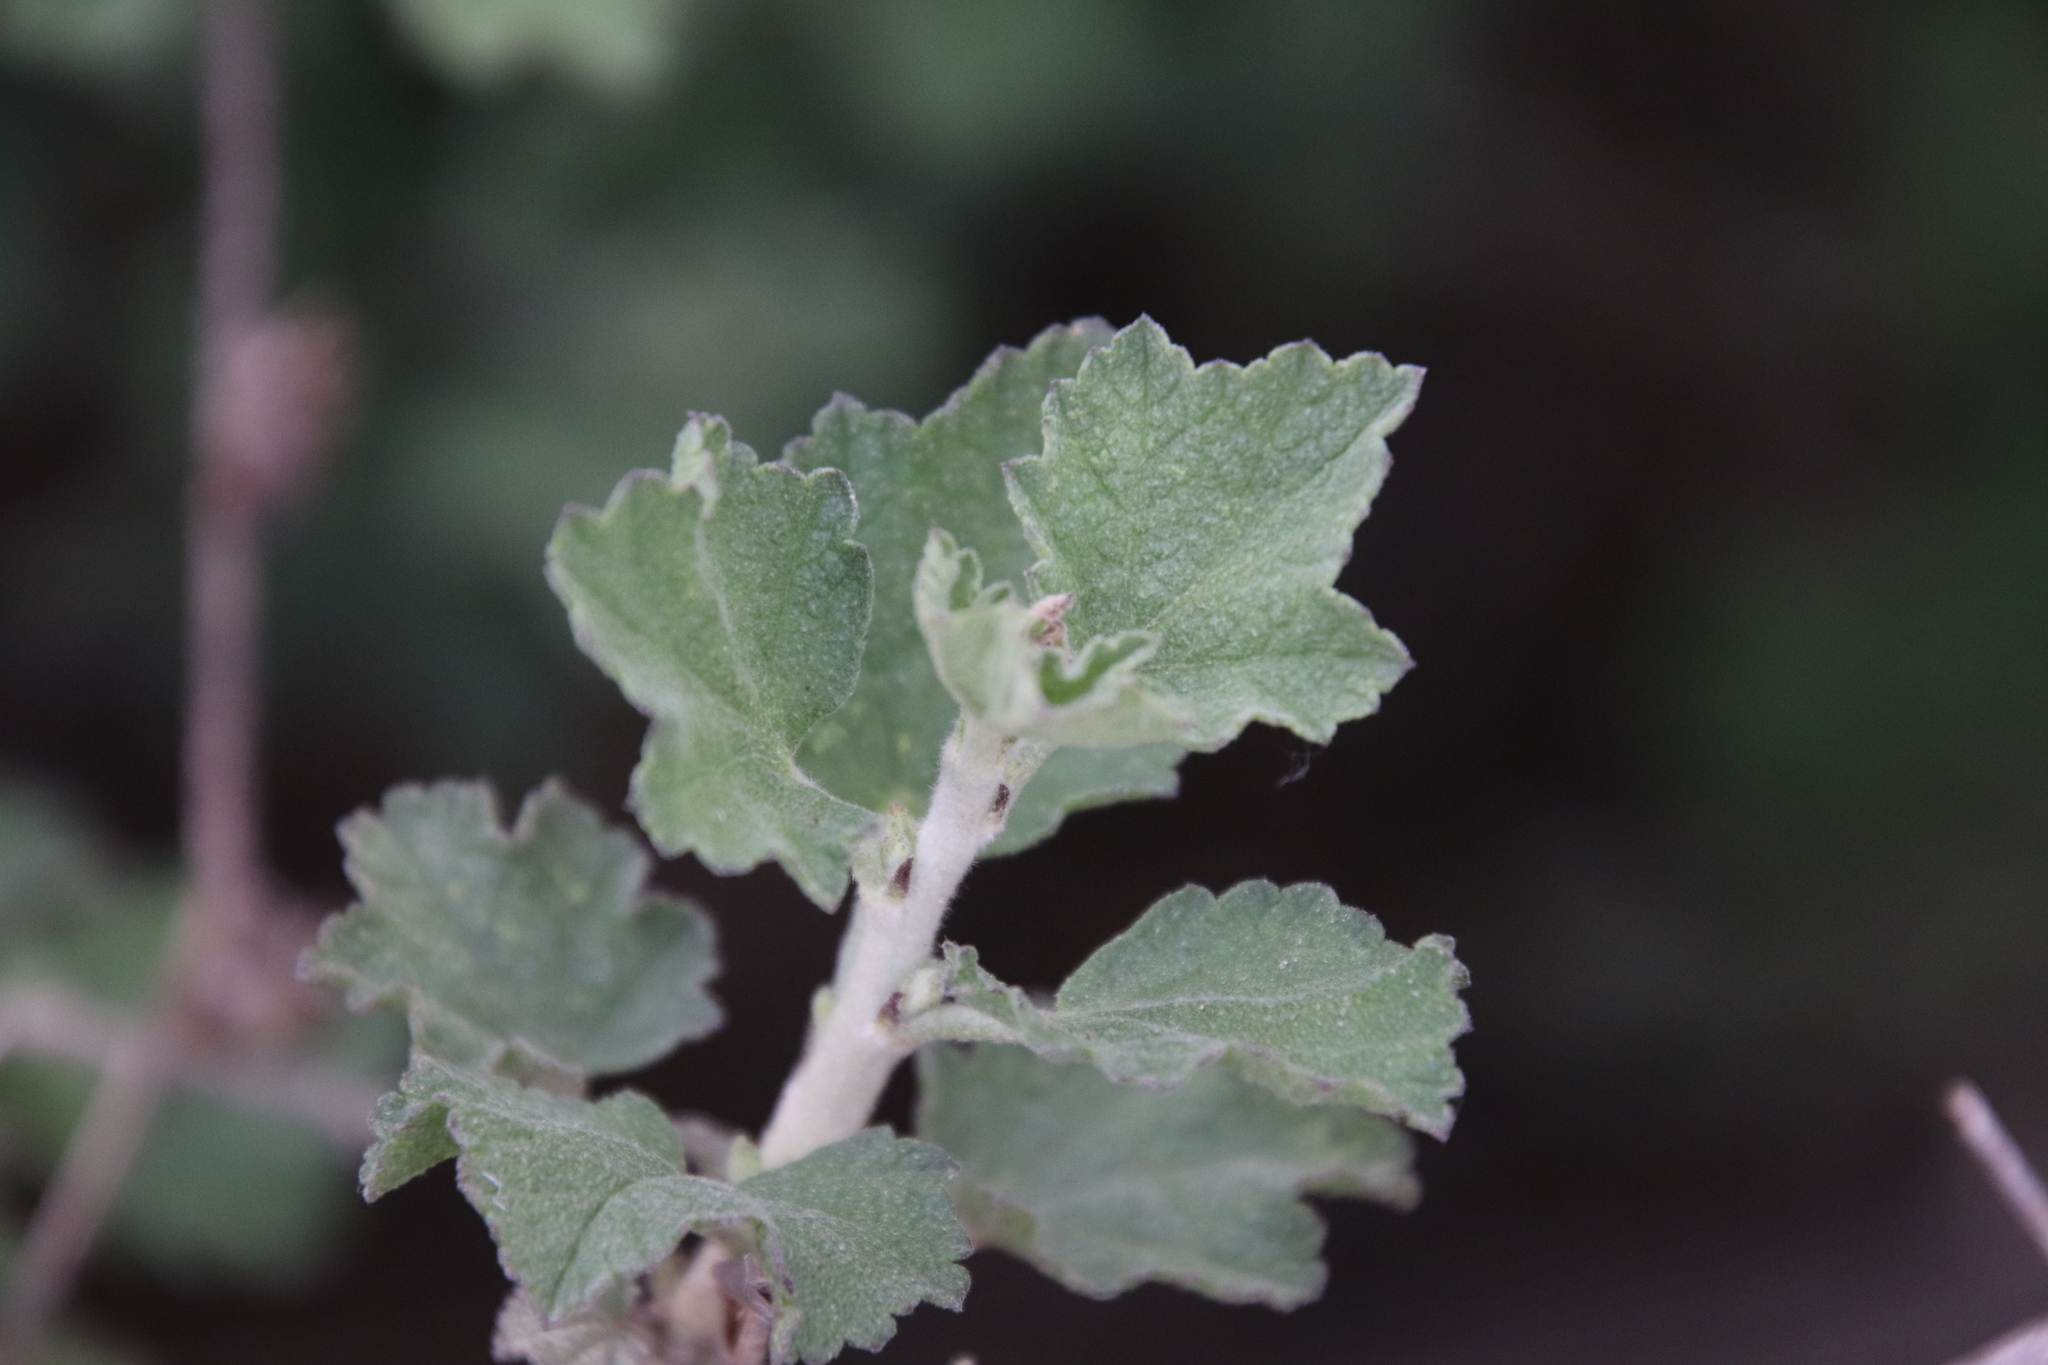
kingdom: Plantae
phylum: Tracheophyta
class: Magnoliopsida
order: Malvales
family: Malvaceae
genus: Malacothamnus
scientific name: Malacothamnus fasciculatus
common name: Sant cruz island bush-mallow
